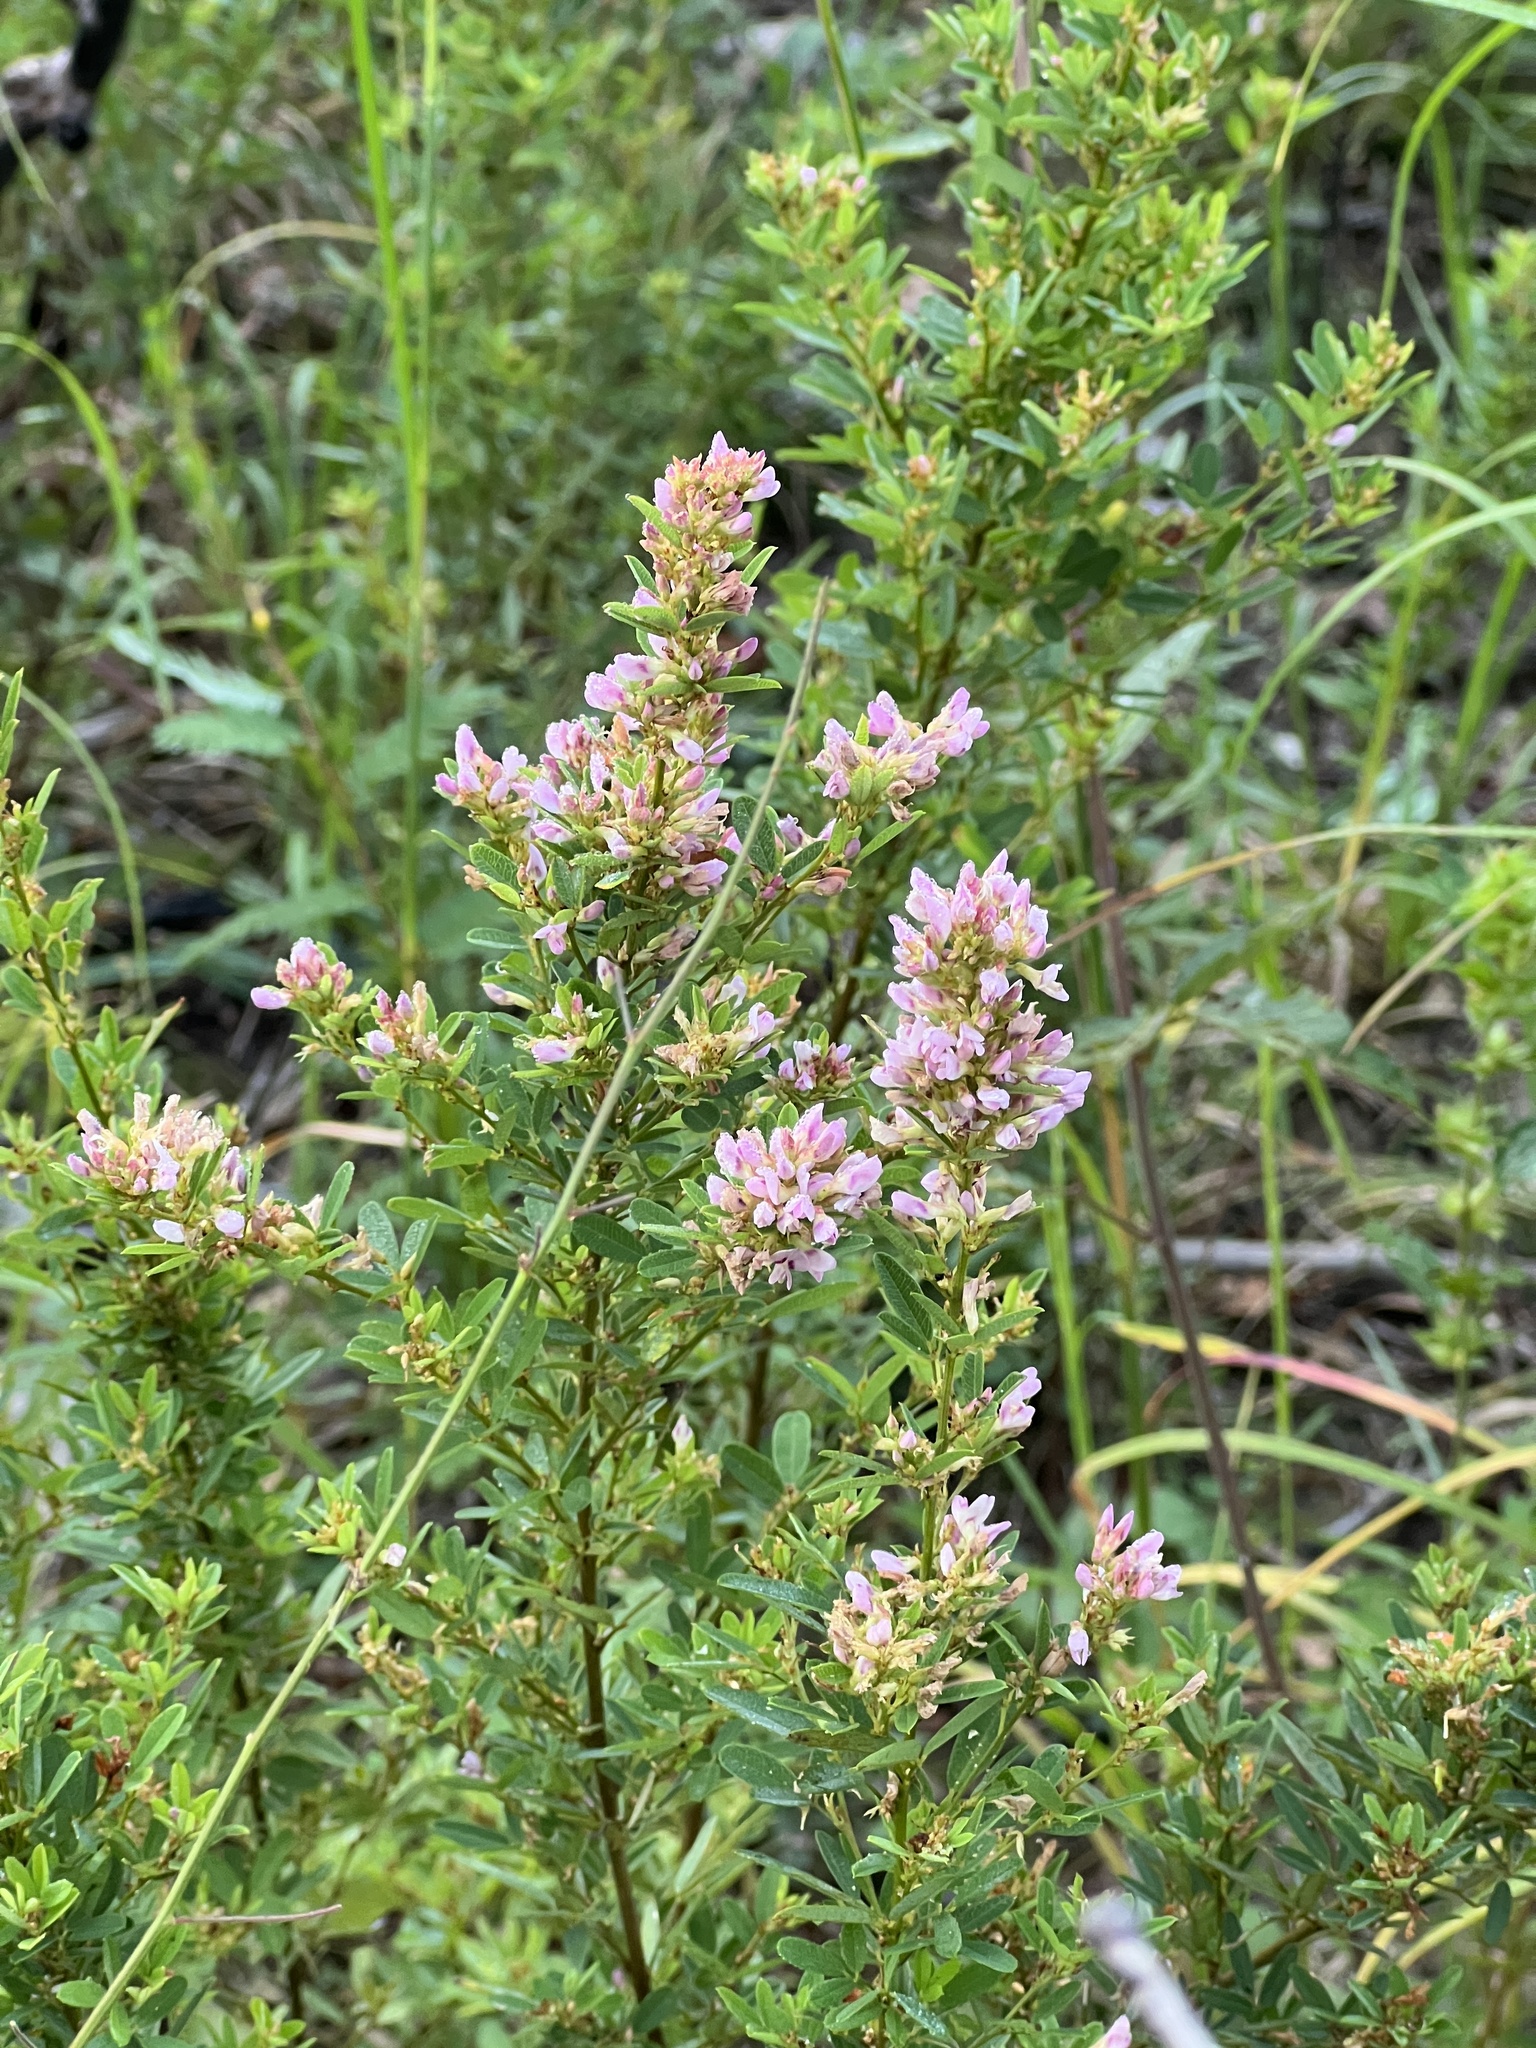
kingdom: Plantae
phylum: Tracheophyta
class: Magnoliopsida
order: Fabales
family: Fabaceae
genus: Lespedeza
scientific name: Lespedeza virginica
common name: Slender bush-clover
